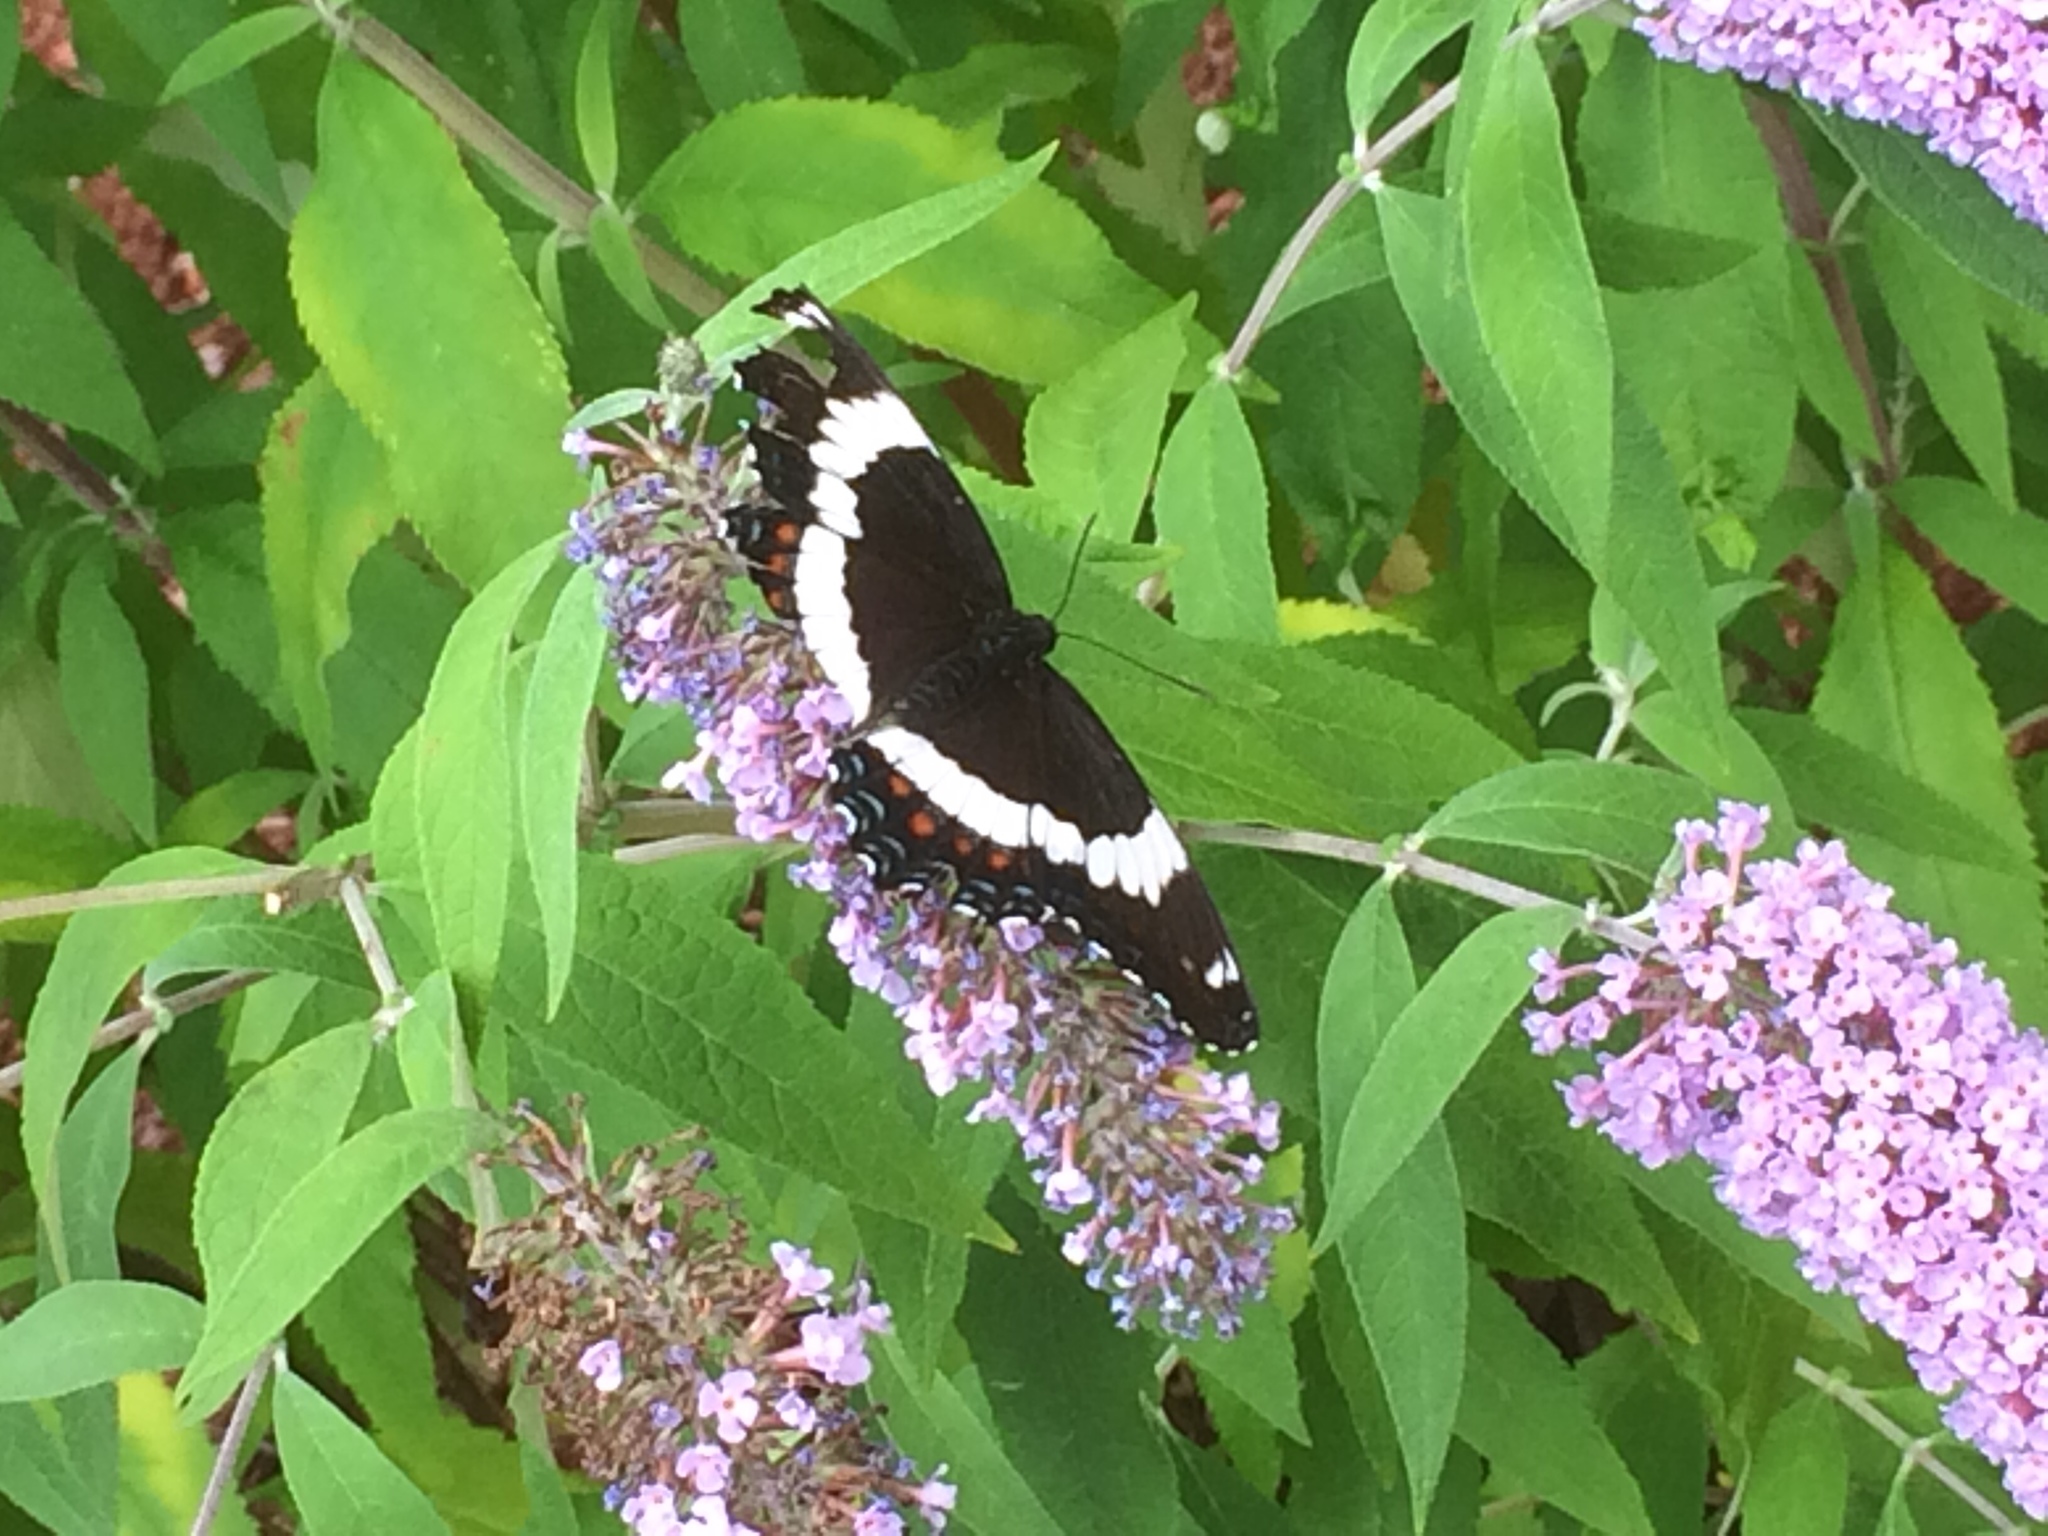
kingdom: Animalia
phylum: Arthropoda
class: Insecta
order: Lepidoptera
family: Nymphalidae
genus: Limenitis
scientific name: Limenitis arthemis
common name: Red-spotted admiral
